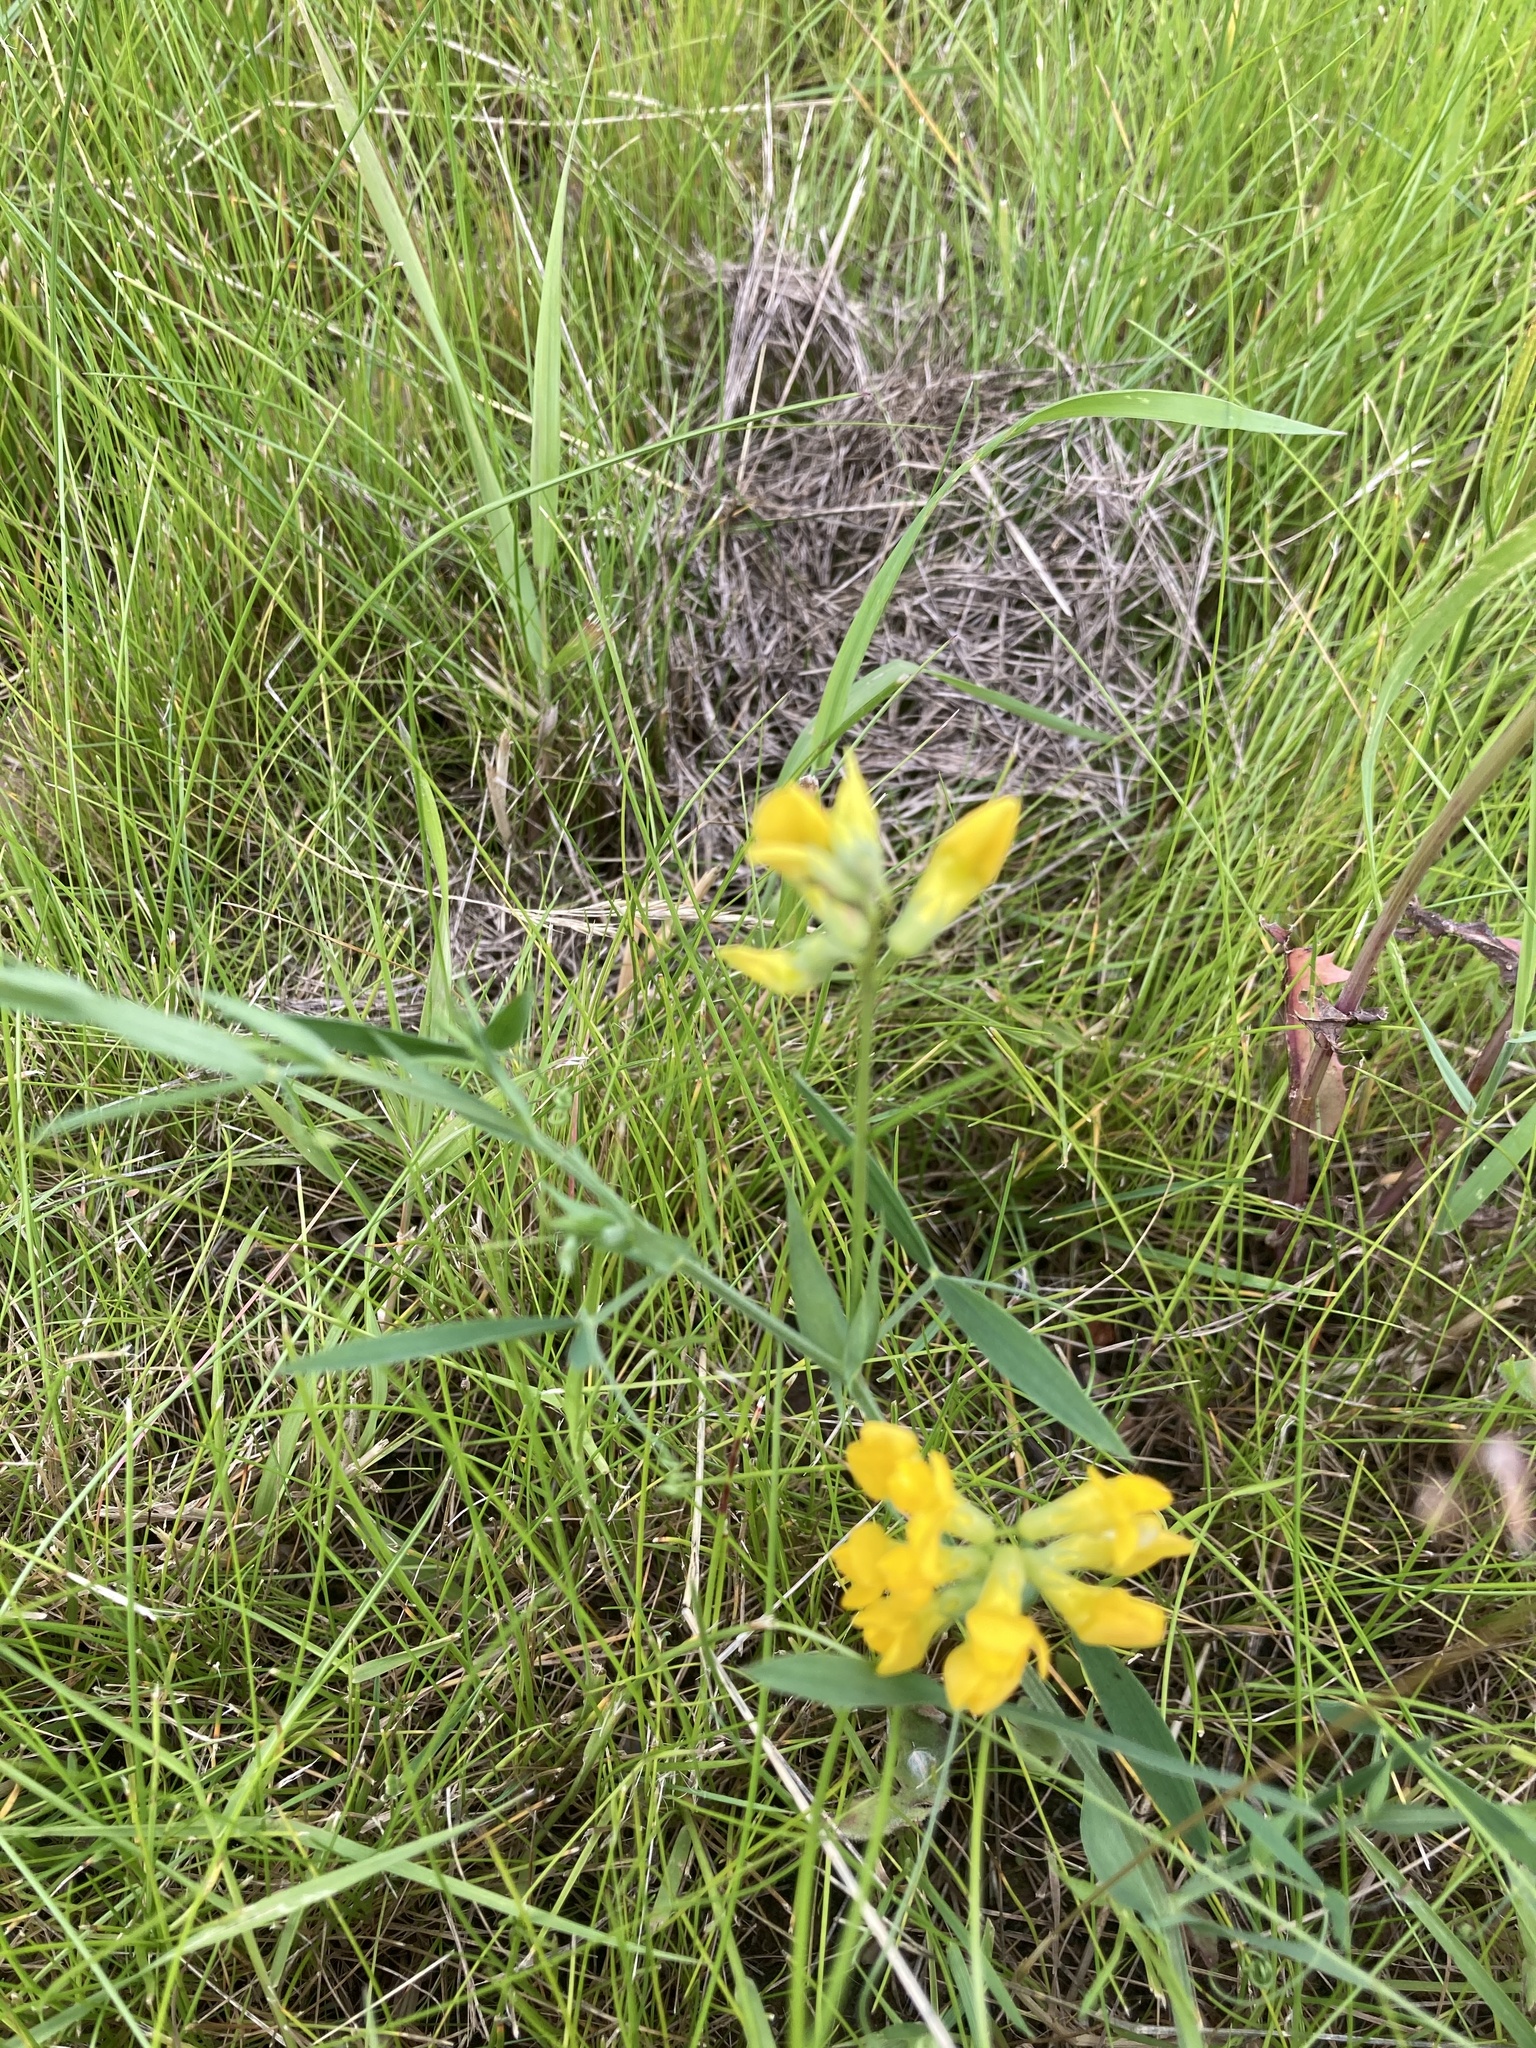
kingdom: Plantae
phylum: Tracheophyta
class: Magnoliopsida
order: Fabales
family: Fabaceae
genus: Lathyrus
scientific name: Lathyrus pratensis
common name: Meadow vetchling
